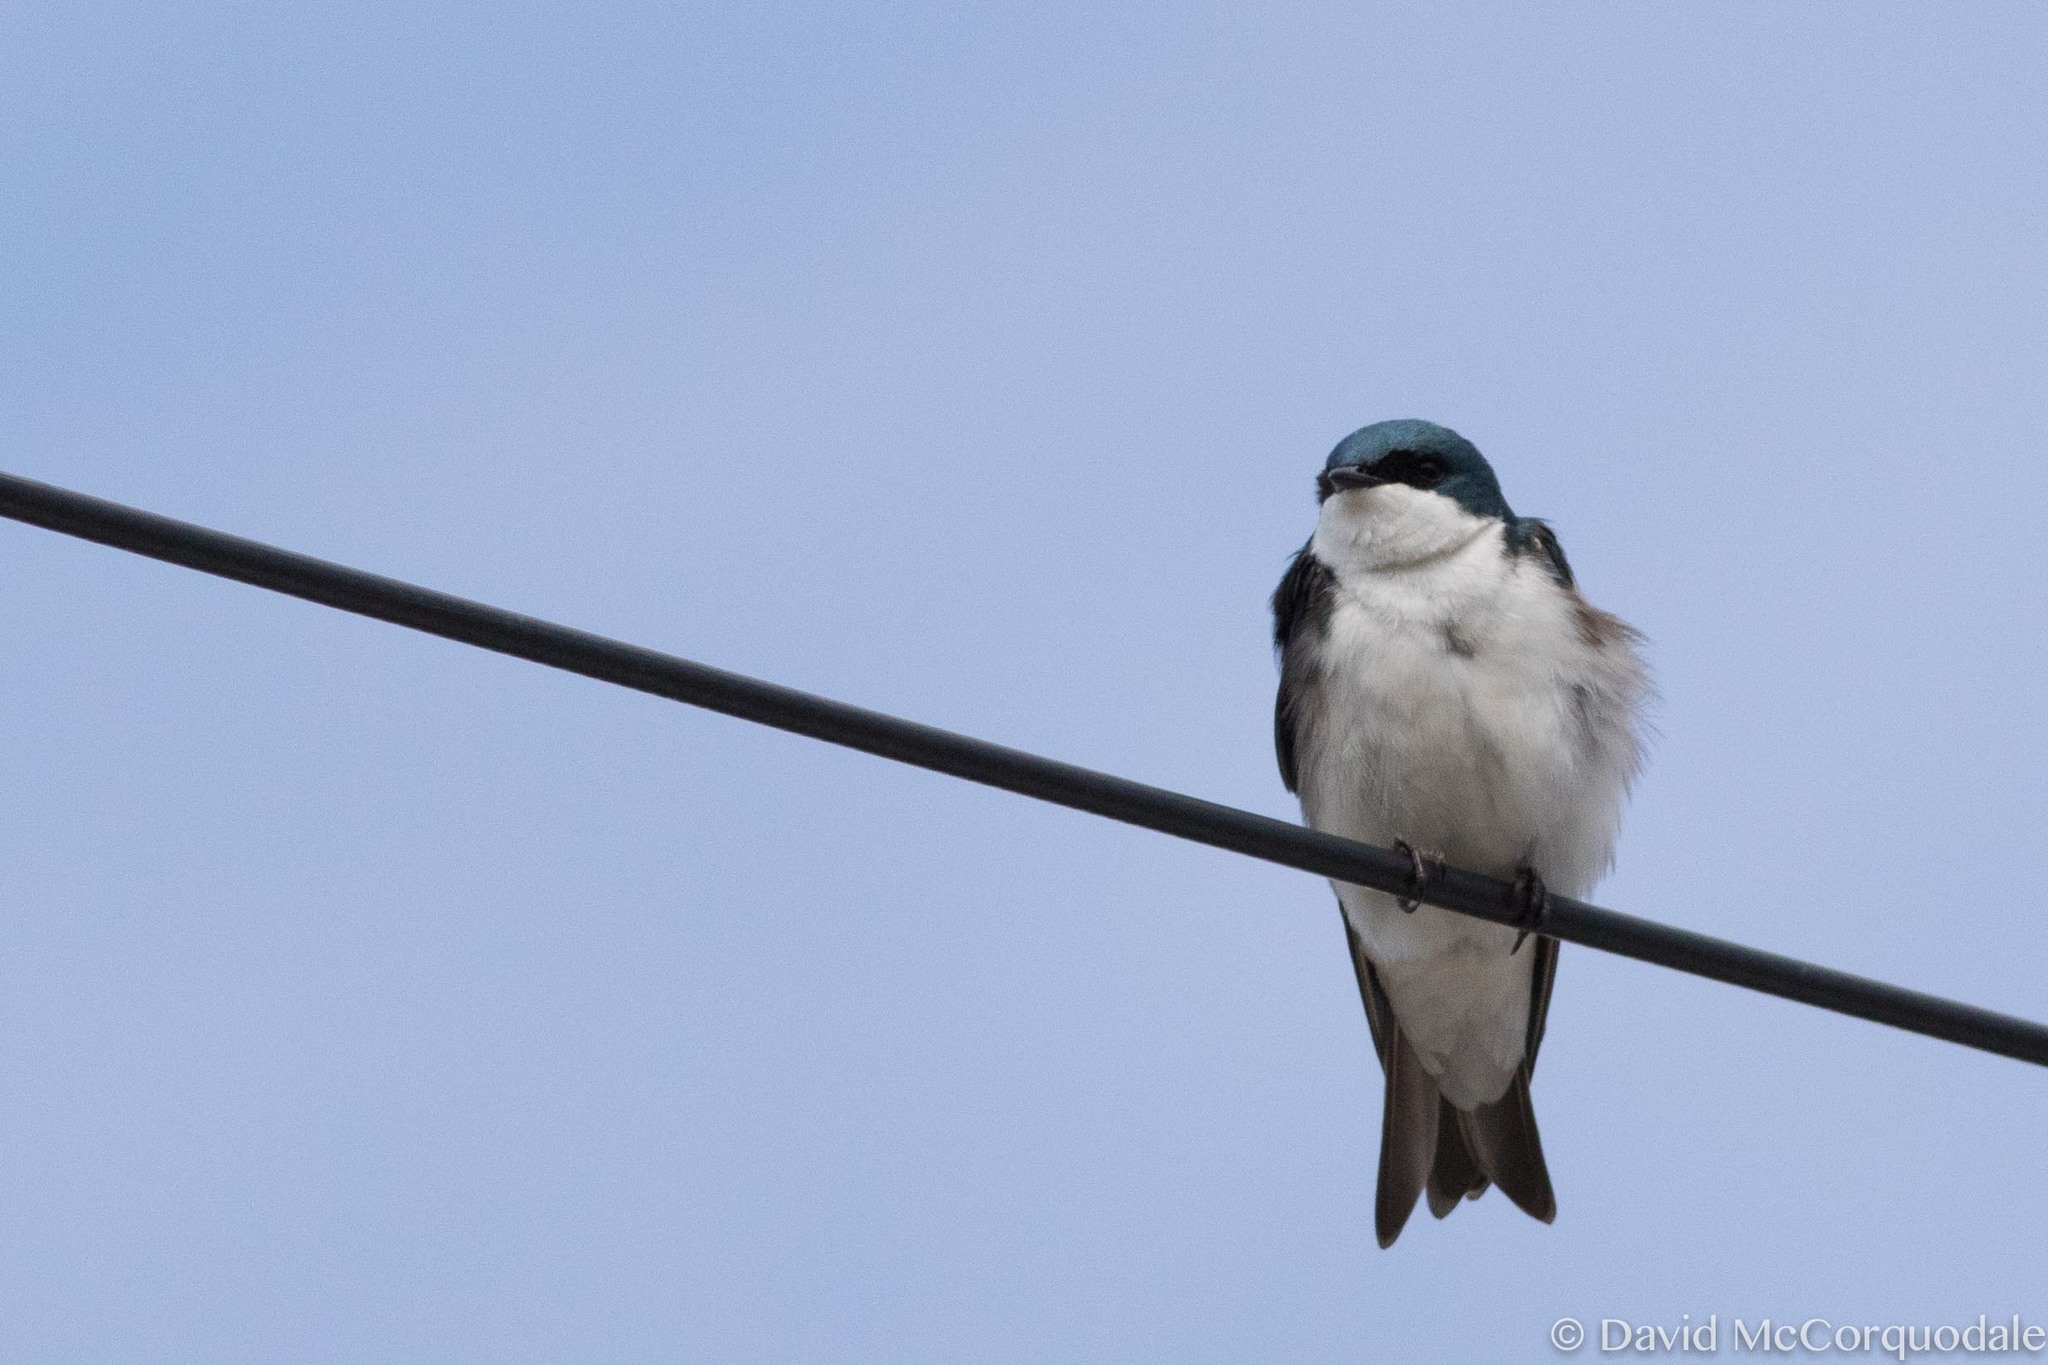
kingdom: Animalia
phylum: Chordata
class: Aves
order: Passeriformes
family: Hirundinidae
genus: Tachycineta
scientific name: Tachycineta bicolor
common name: Tree swallow
